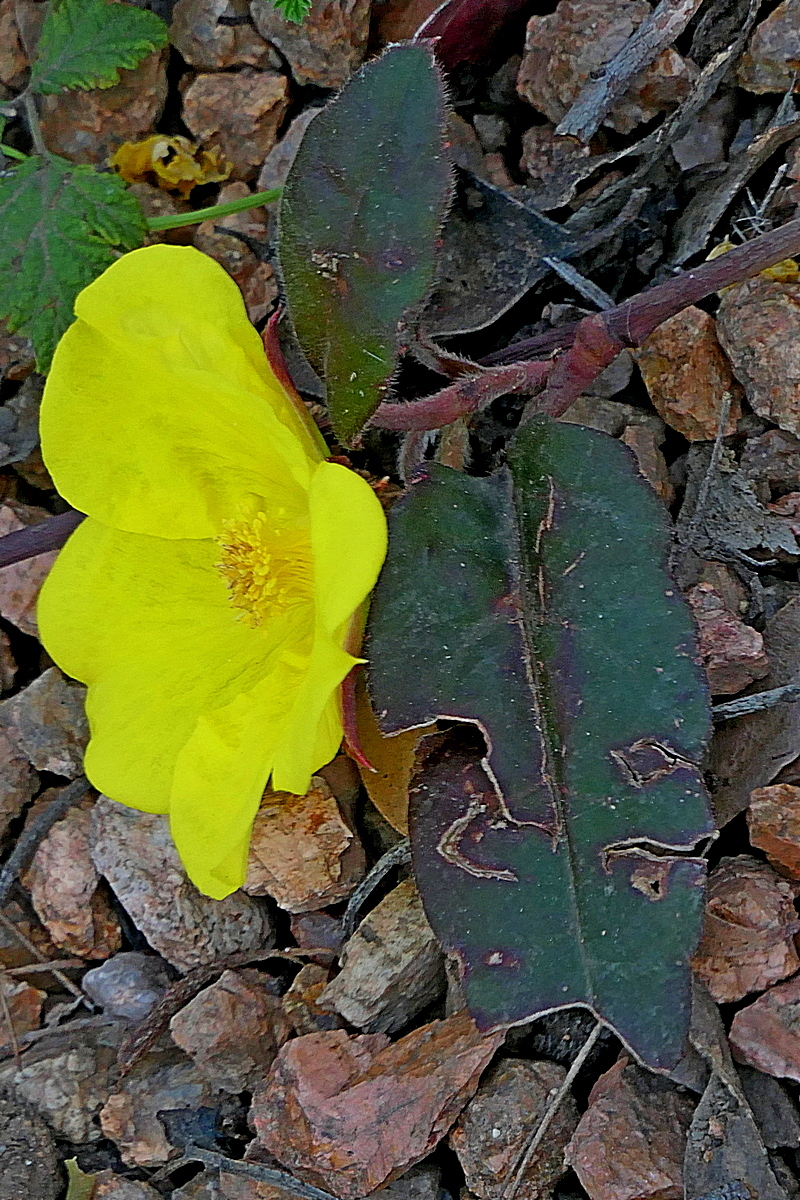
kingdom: Plantae
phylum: Tracheophyta
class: Magnoliopsida
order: Dilleniales
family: Dilleniaceae
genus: Hibbertia
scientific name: Hibbertia dentata
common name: Trailing guinea-flower
